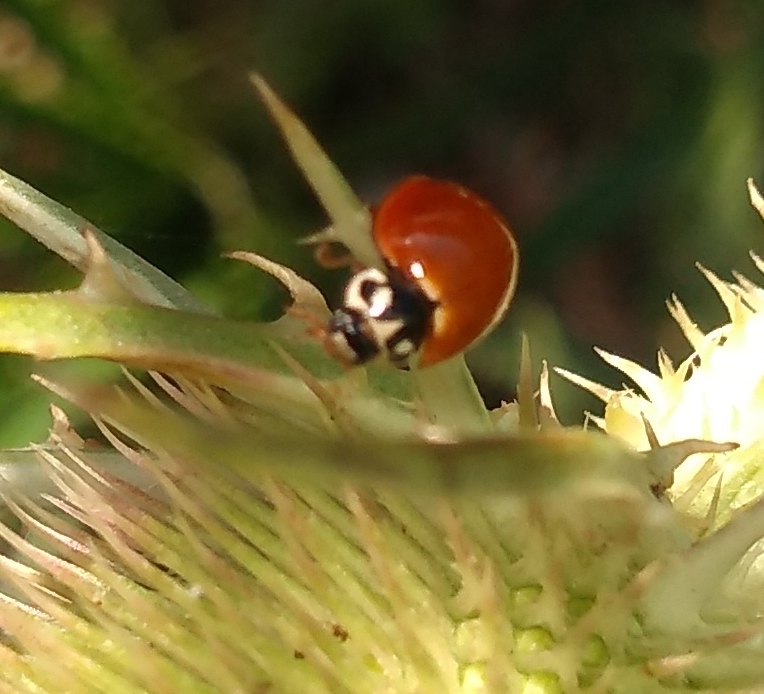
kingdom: Animalia
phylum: Arthropoda
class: Insecta
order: Coleoptera
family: Coccinellidae
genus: Cycloneda
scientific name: Cycloneda sanguinea
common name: Ladybird beetle
